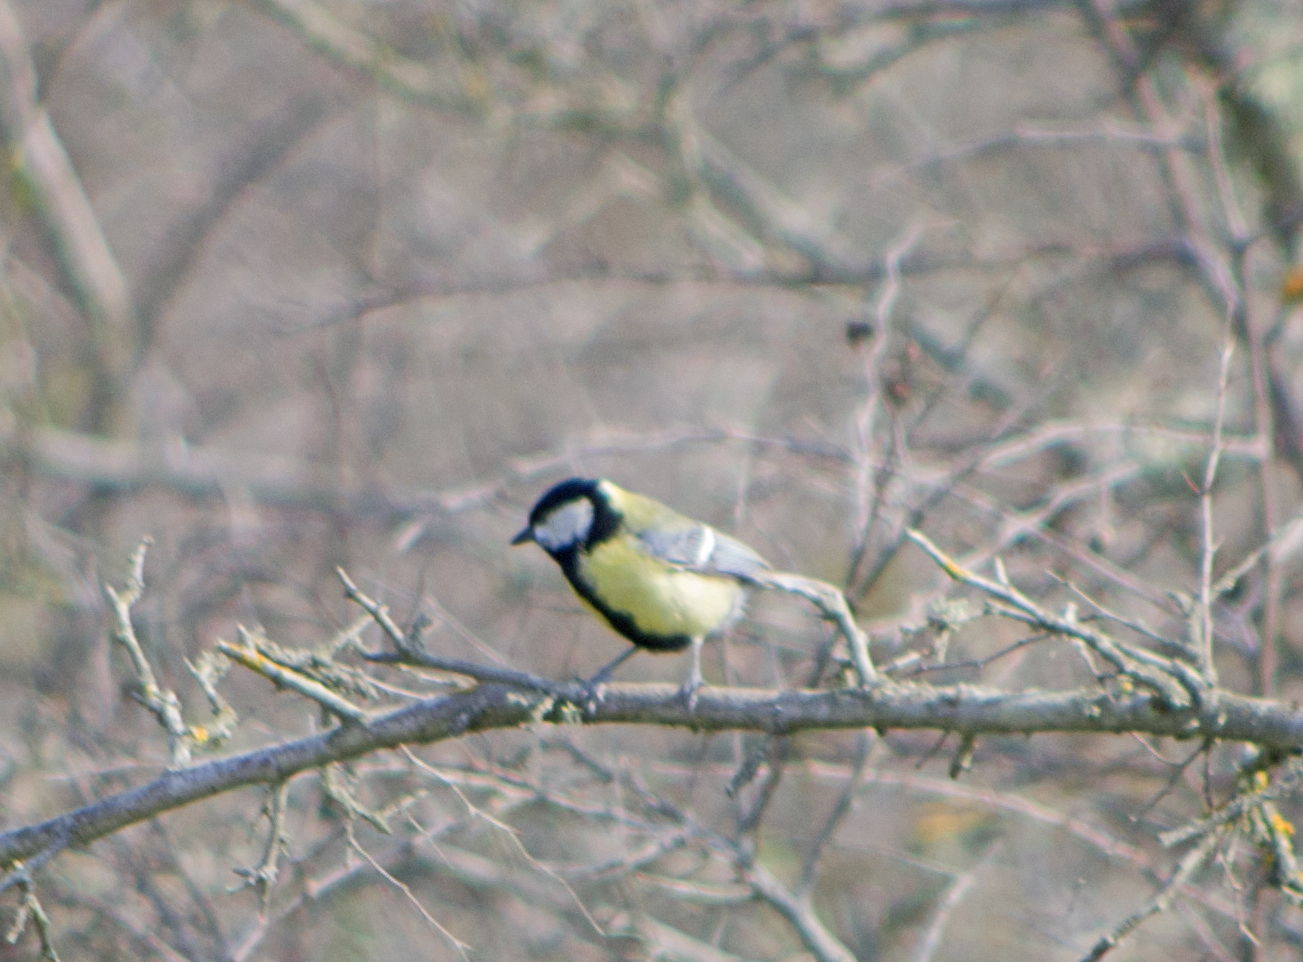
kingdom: Animalia
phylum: Chordata
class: Aves
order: Passeriformes
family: Paridae
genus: Parus
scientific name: Parus major
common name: Great tit
